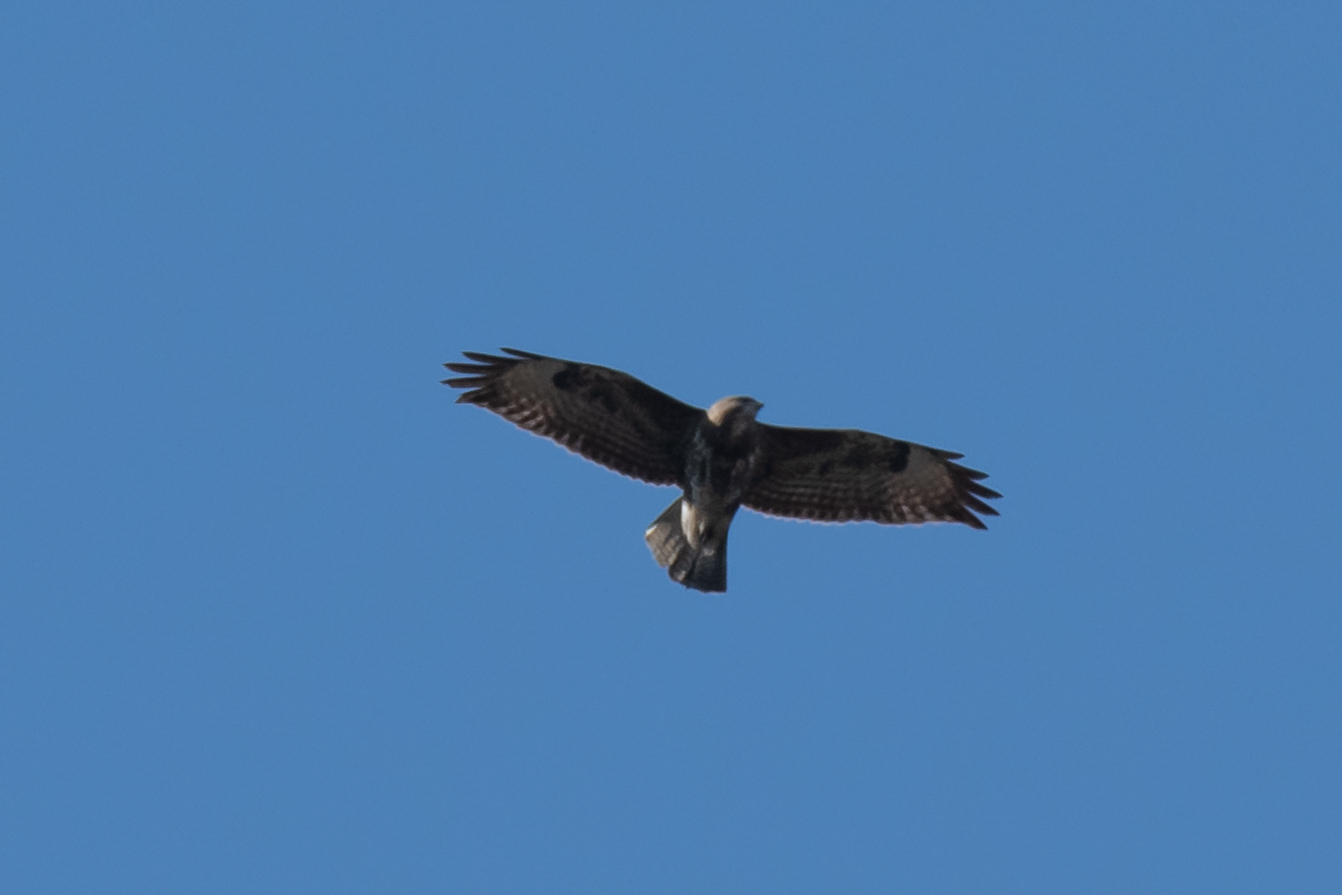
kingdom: Animalia
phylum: Chordata
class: Aves
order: Accipitriformes
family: Accipitridae
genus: Buteo
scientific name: Buteo buteo
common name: Common buzzard
